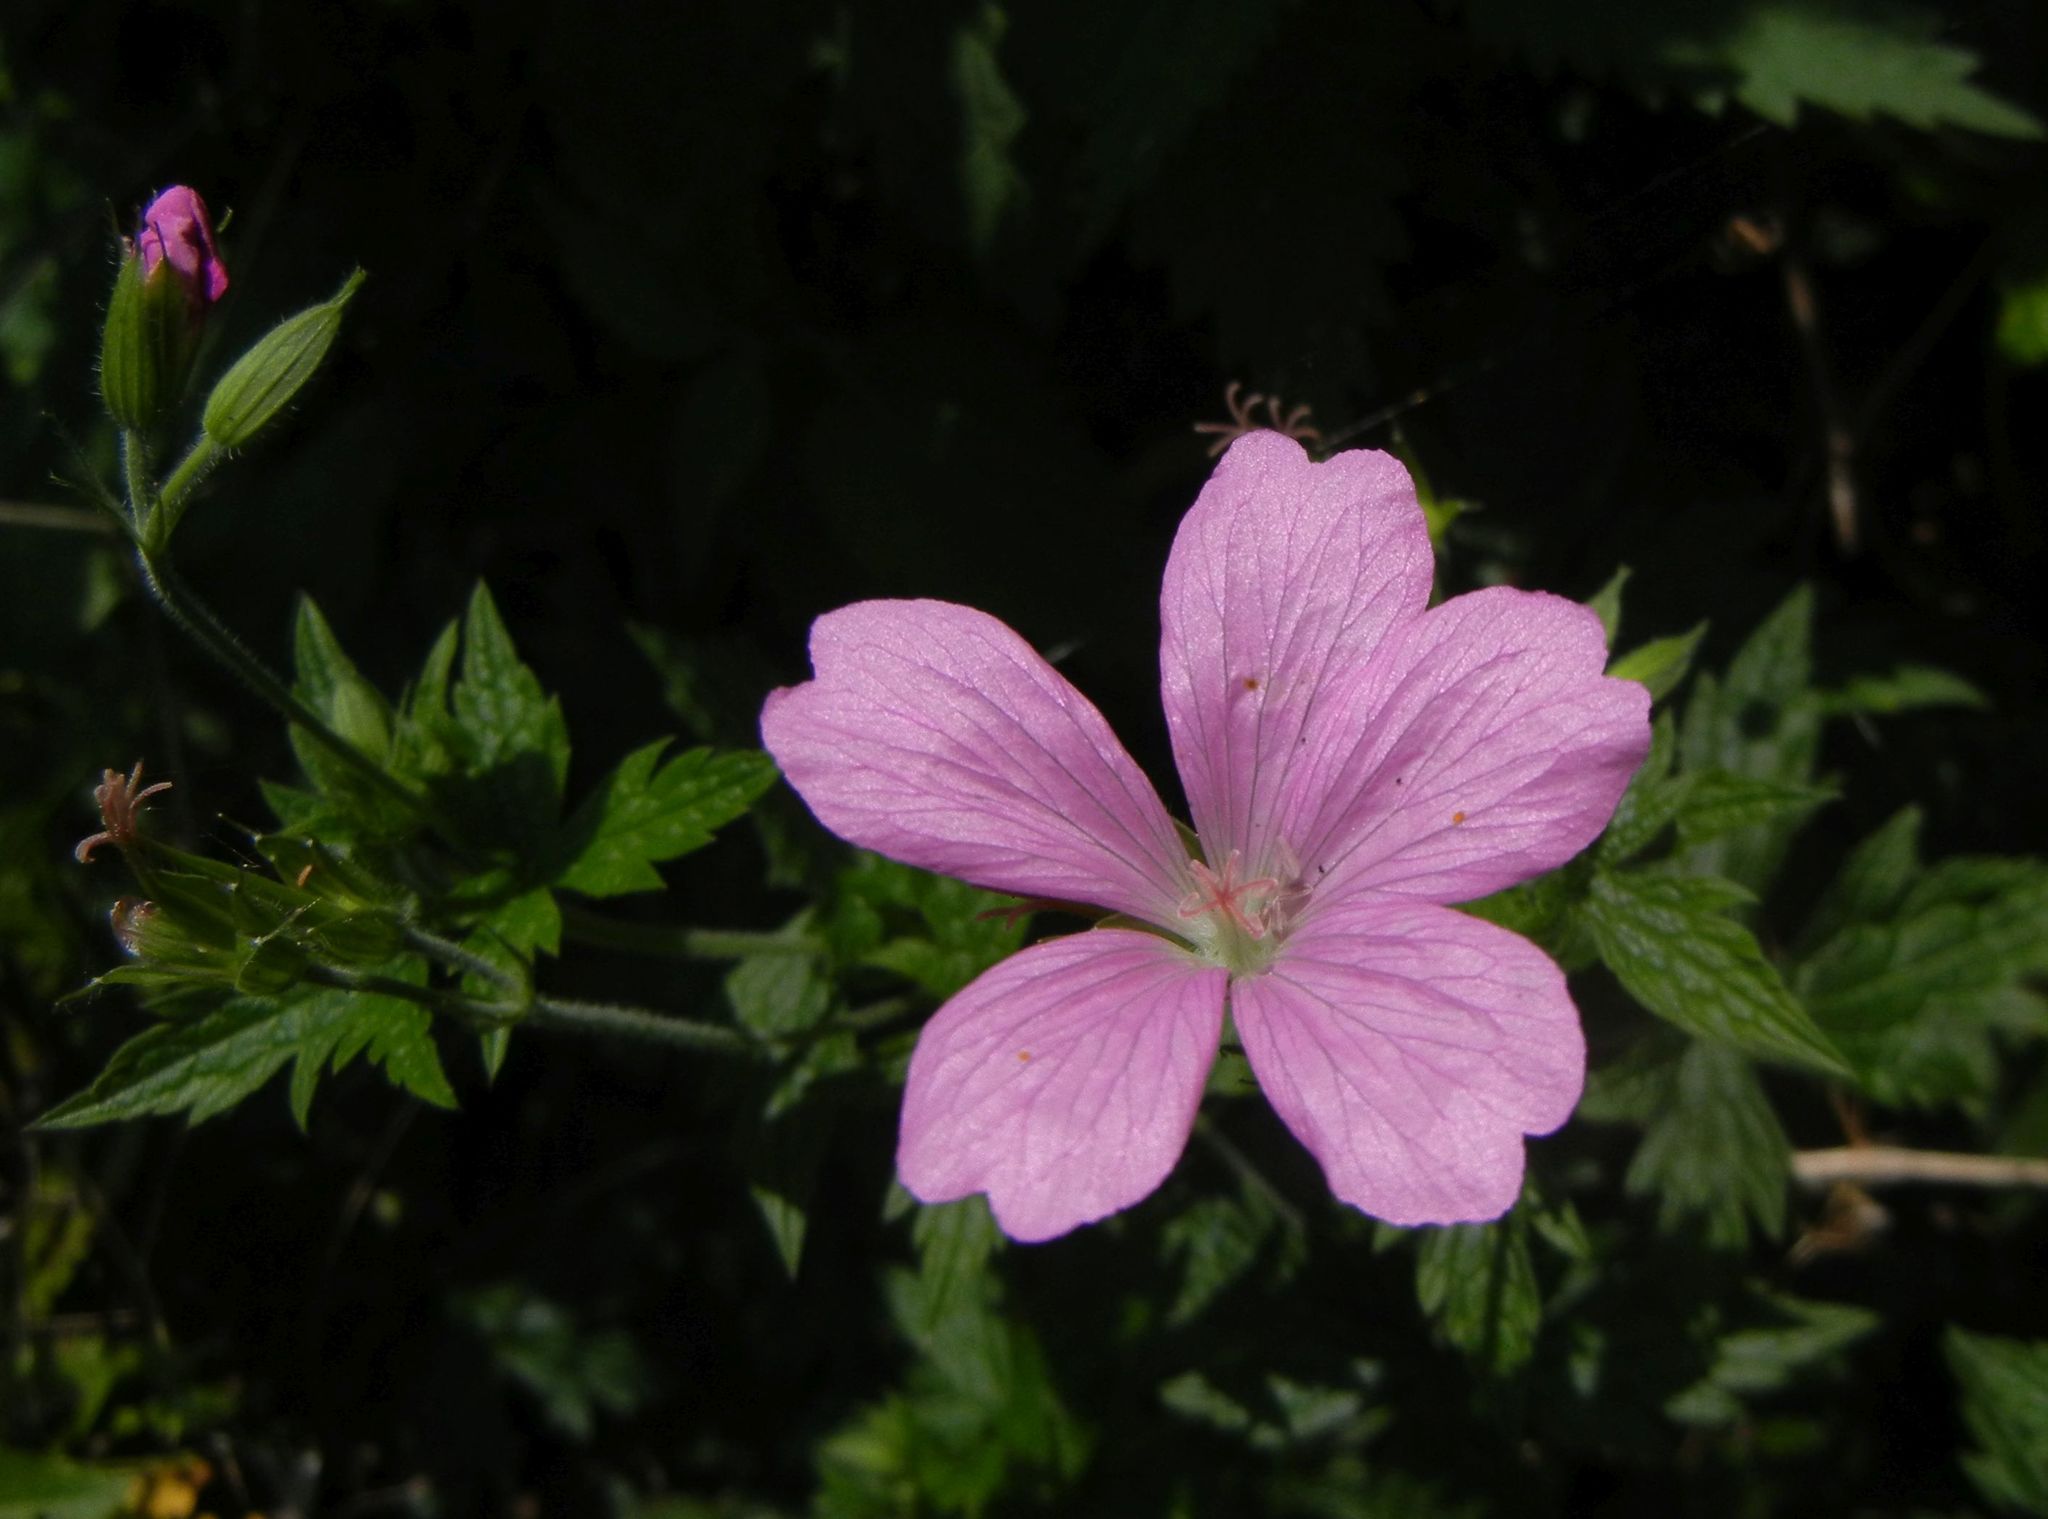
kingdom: Plantae
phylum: Tracheophyta
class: Magnoliopsida
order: Geraniales
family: Geraniaceae
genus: Geranium
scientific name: Geranium oxonianum
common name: Druce's crane's-bill
